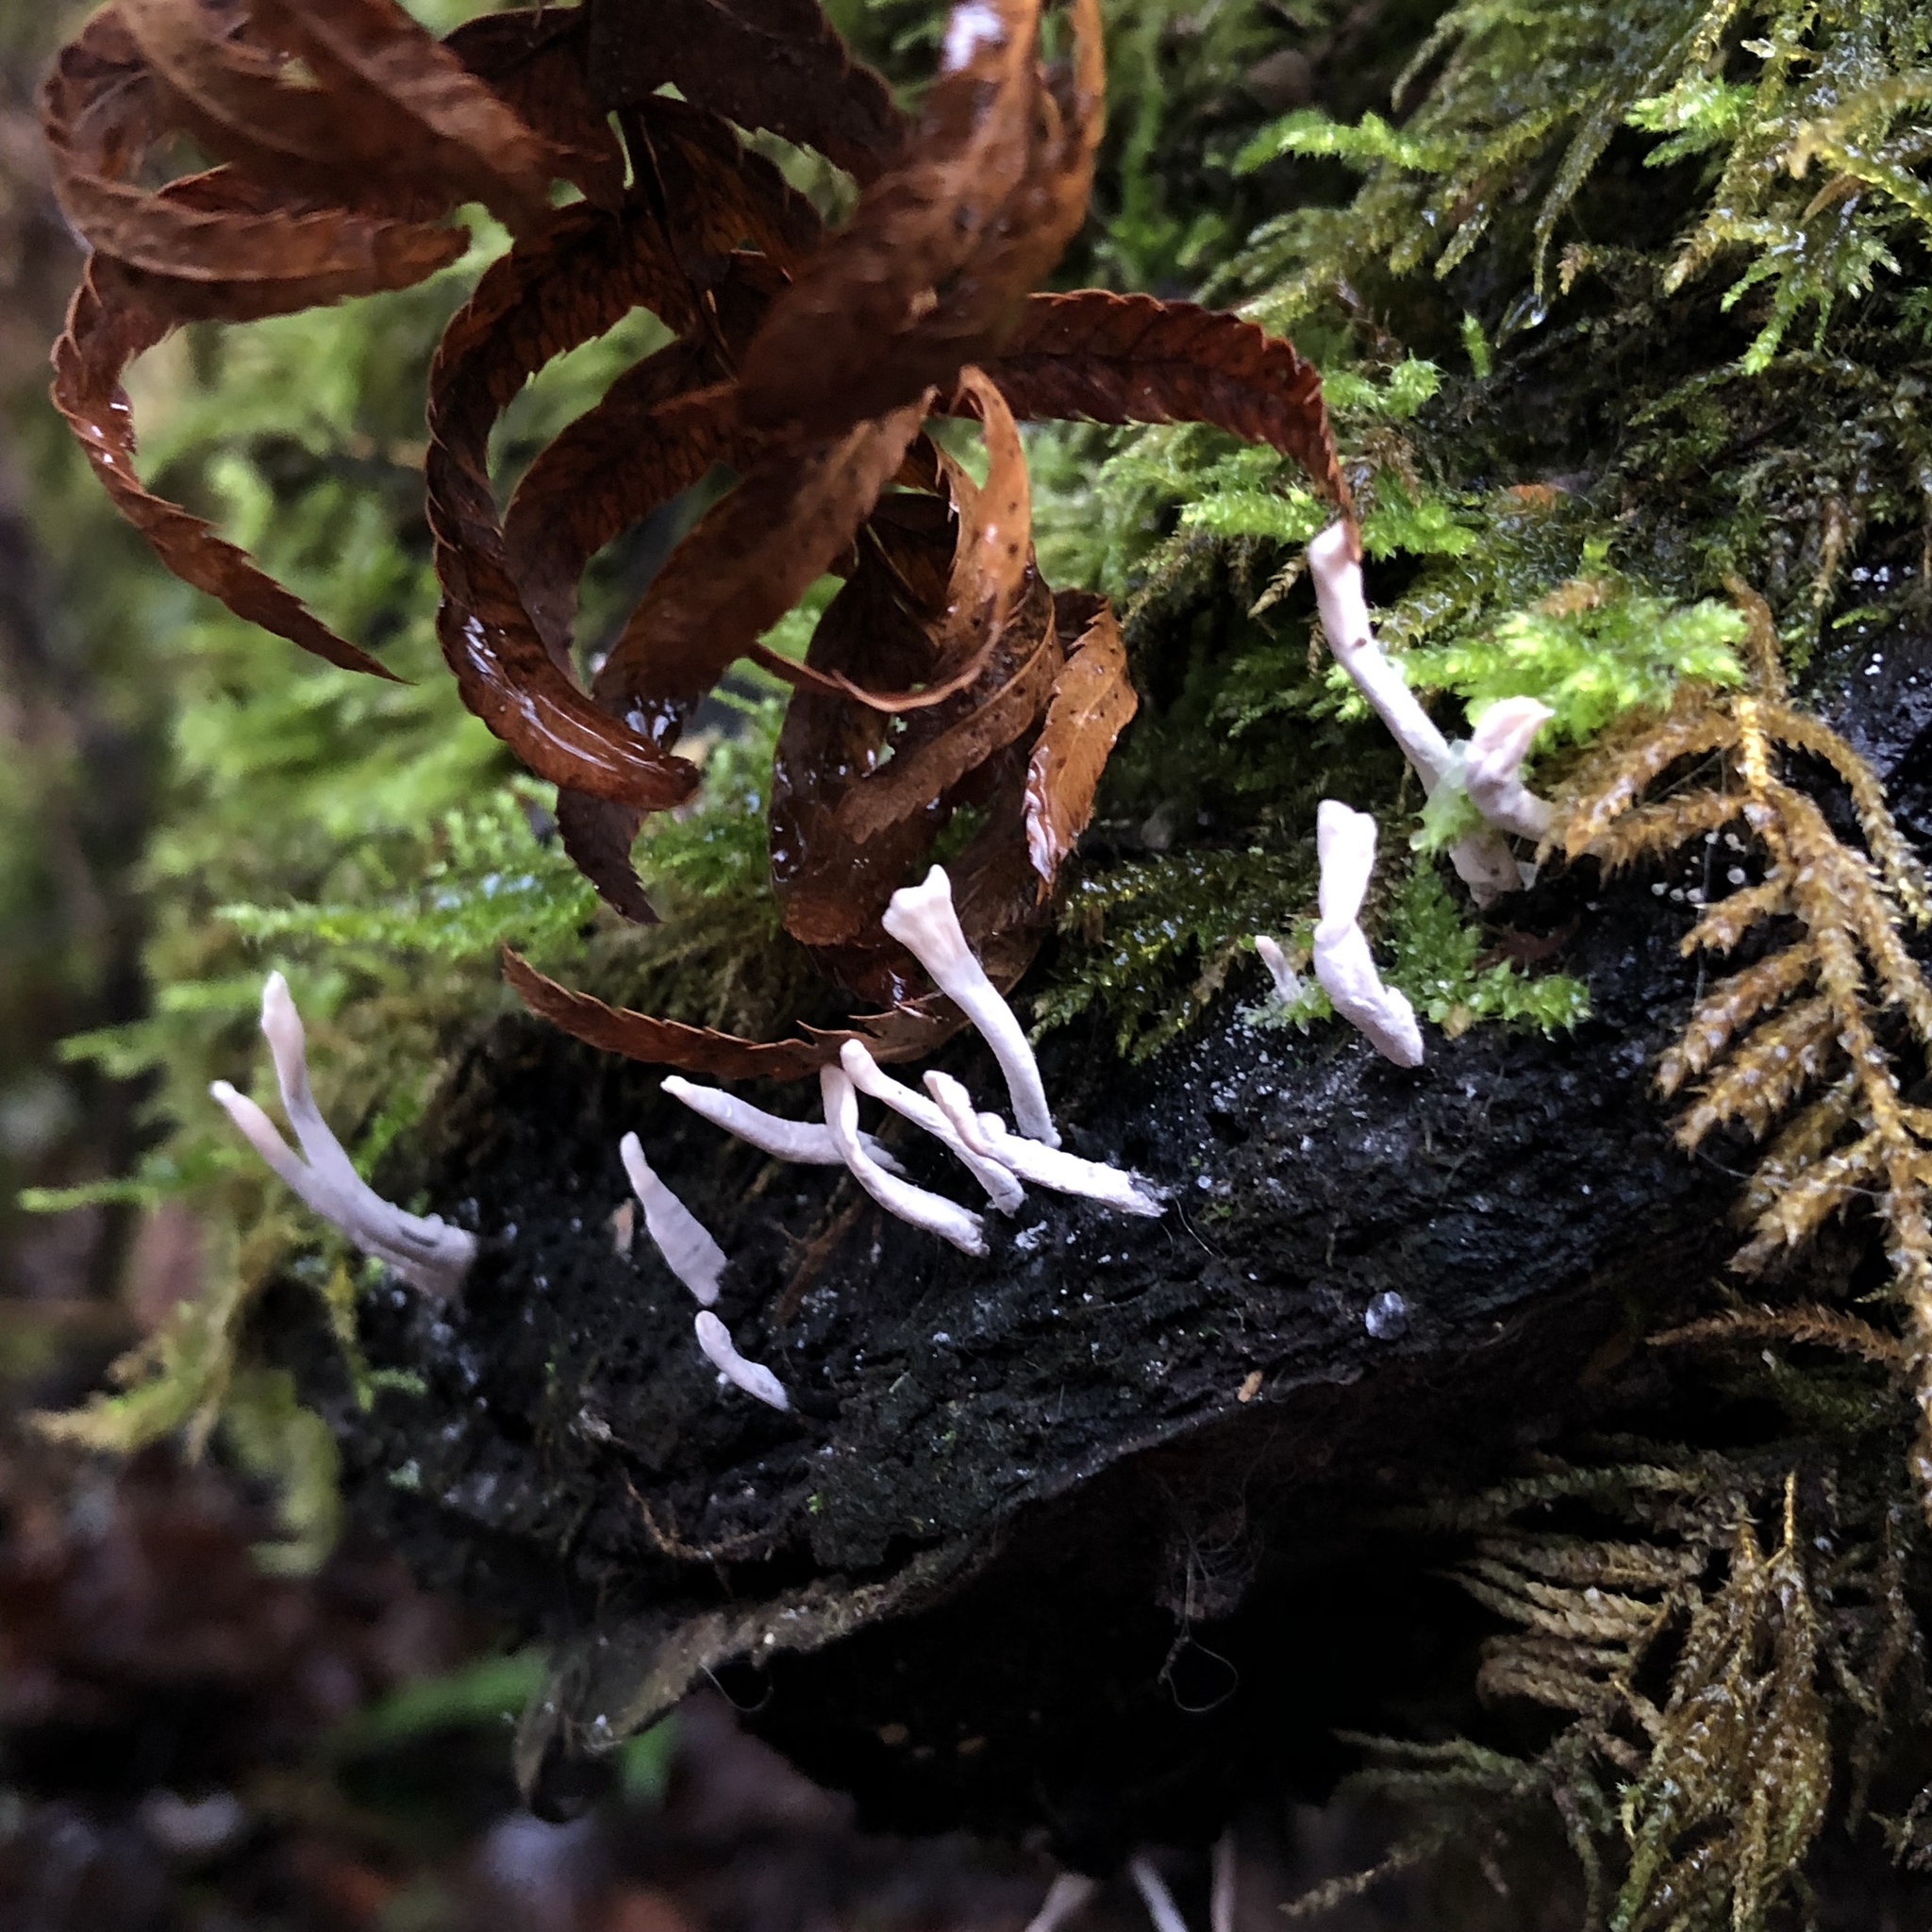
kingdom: Fungi
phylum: Ascomycota
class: Sordariomycetes
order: Xylariales
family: Xylariaceae
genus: Xylaria
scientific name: Xylaria hypoxylon
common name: Candle-snuff fungus
